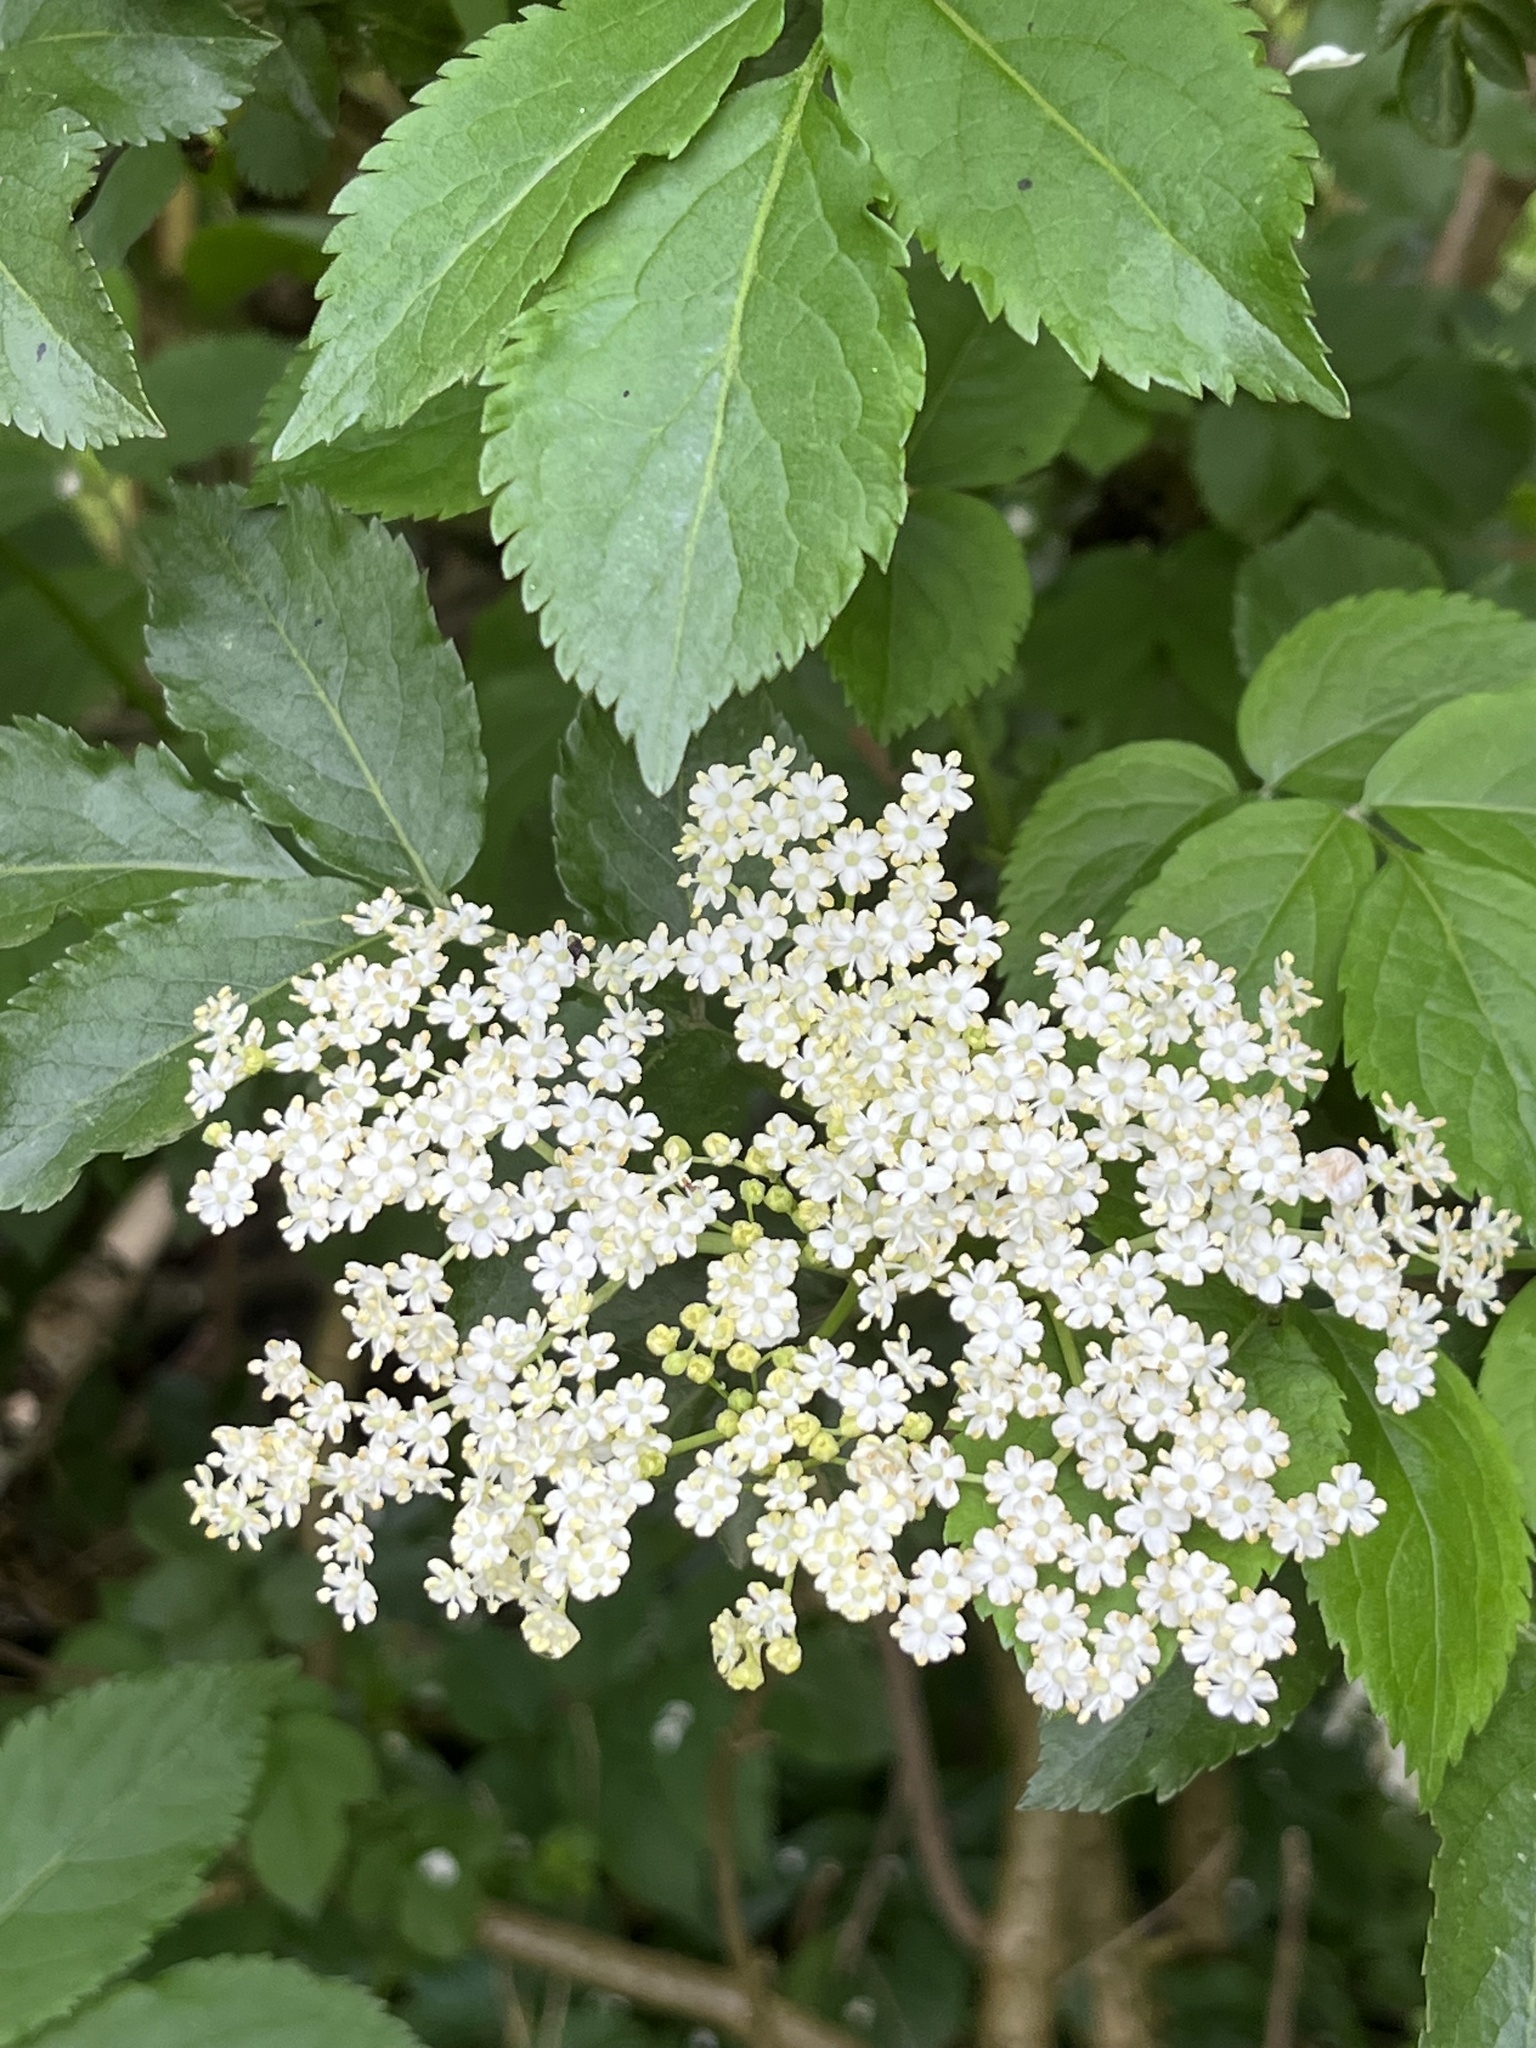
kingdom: Plantae
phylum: Tracheophyta
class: Magnoliopsida
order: Dipsacales
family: Viburnaceae
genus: Sambucus
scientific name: Sambucus nigra
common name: Elder
